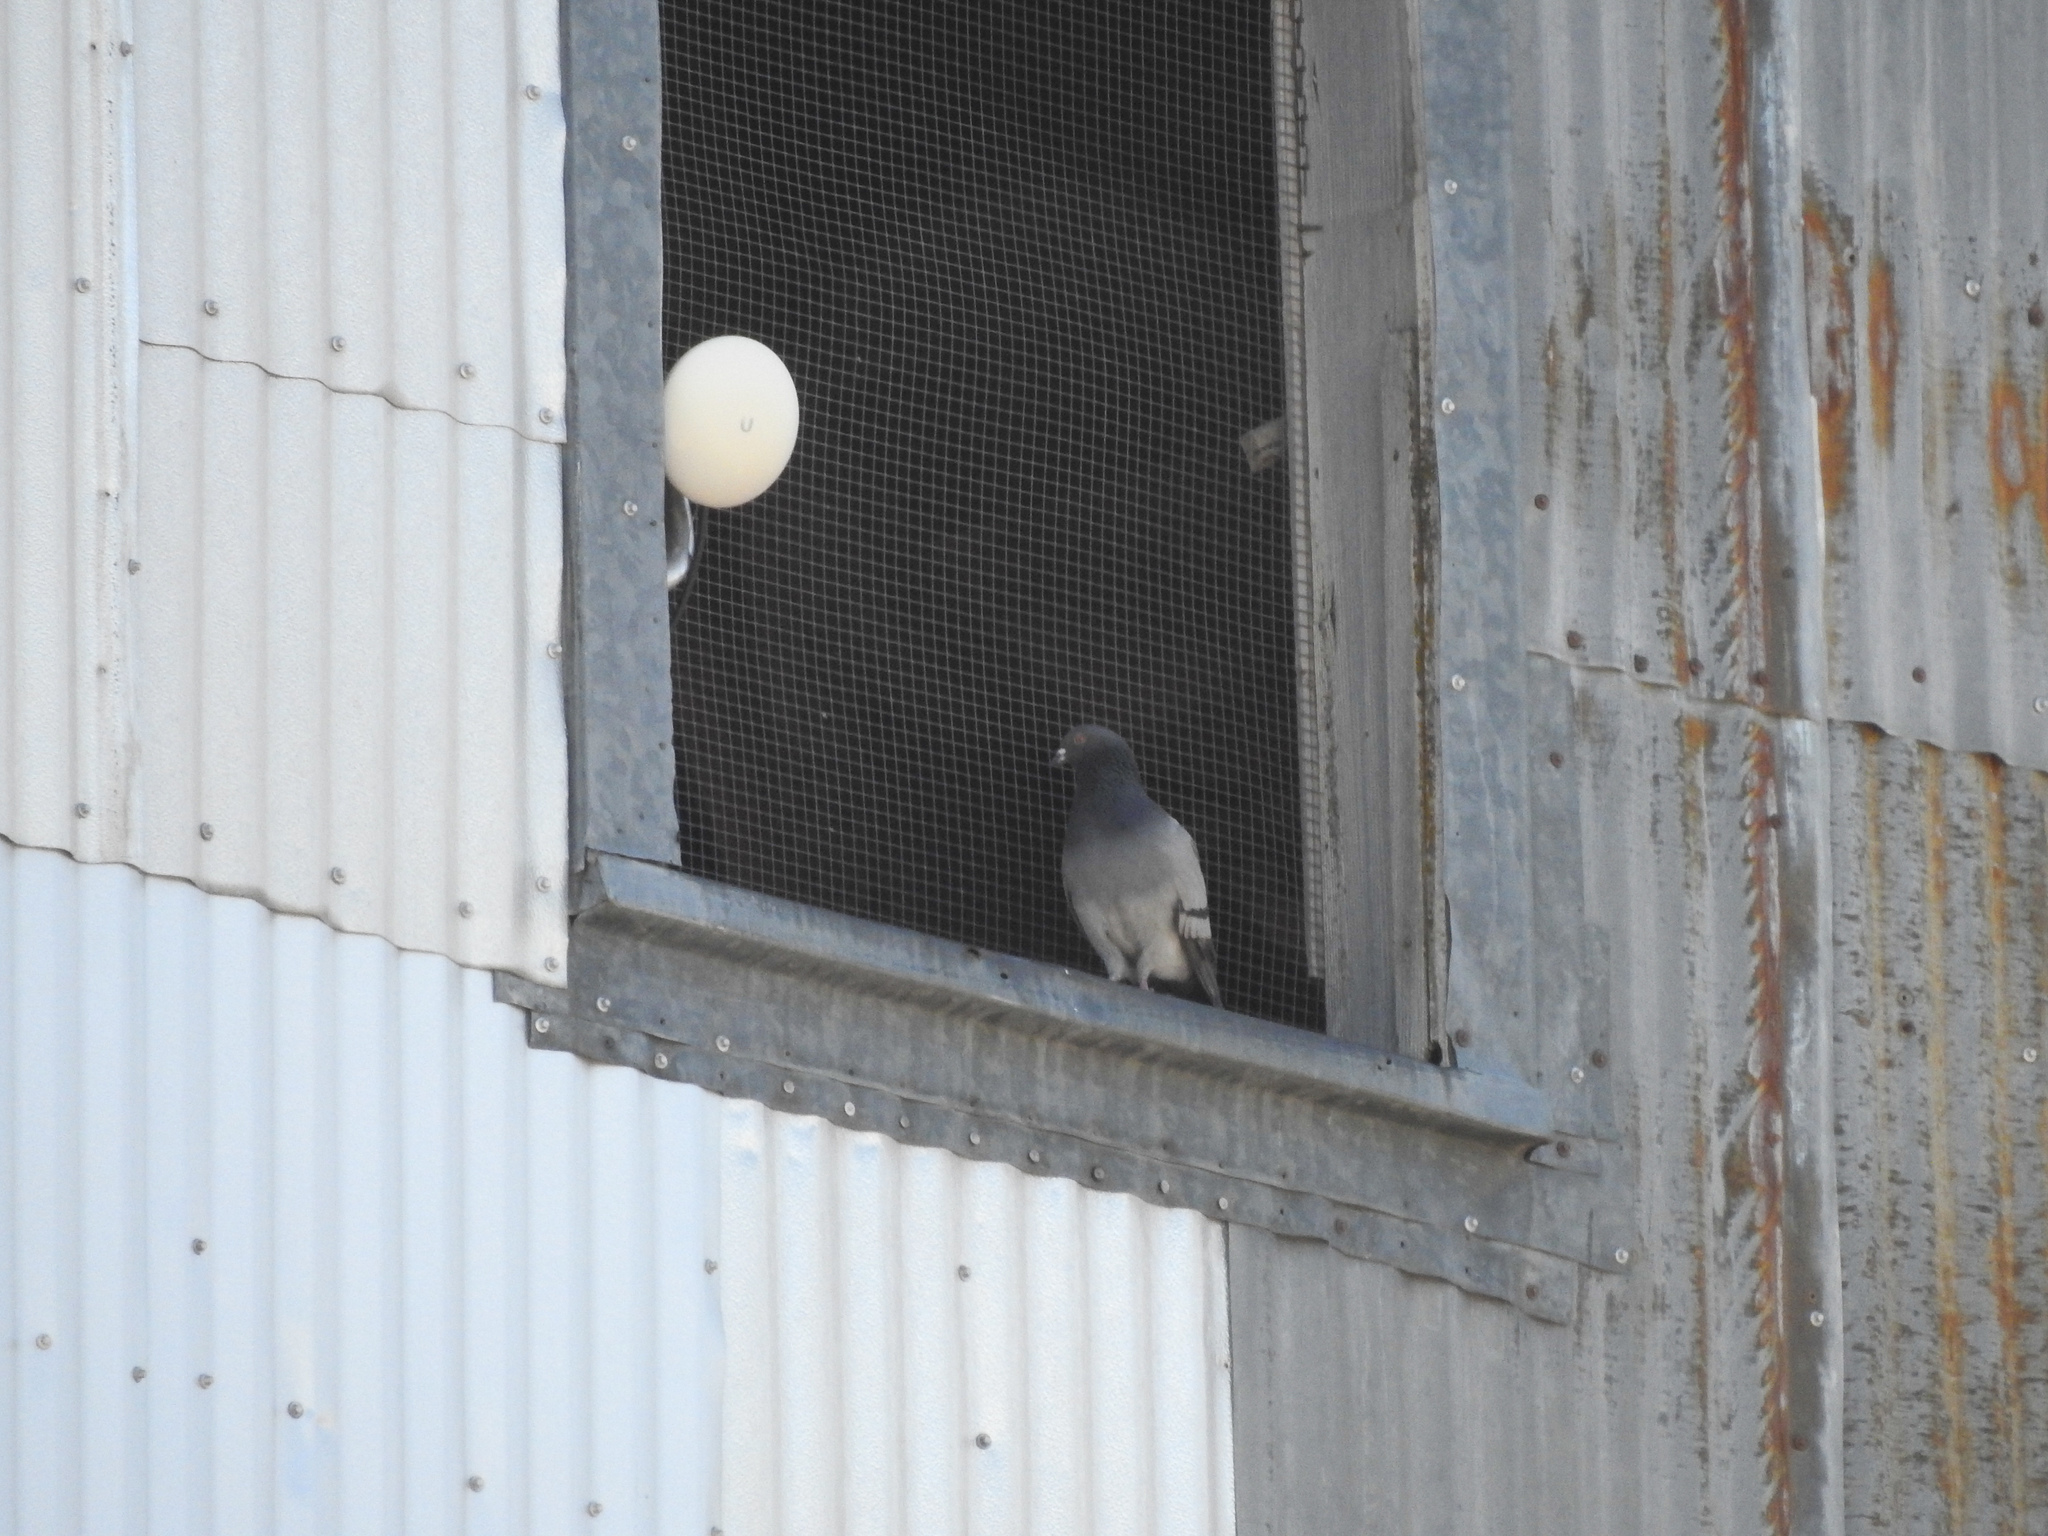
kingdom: Animalia
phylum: Chordata
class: Aves
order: Columbiformes
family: Columbidae
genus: Columba
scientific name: Columba livia
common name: Rock pigeon
